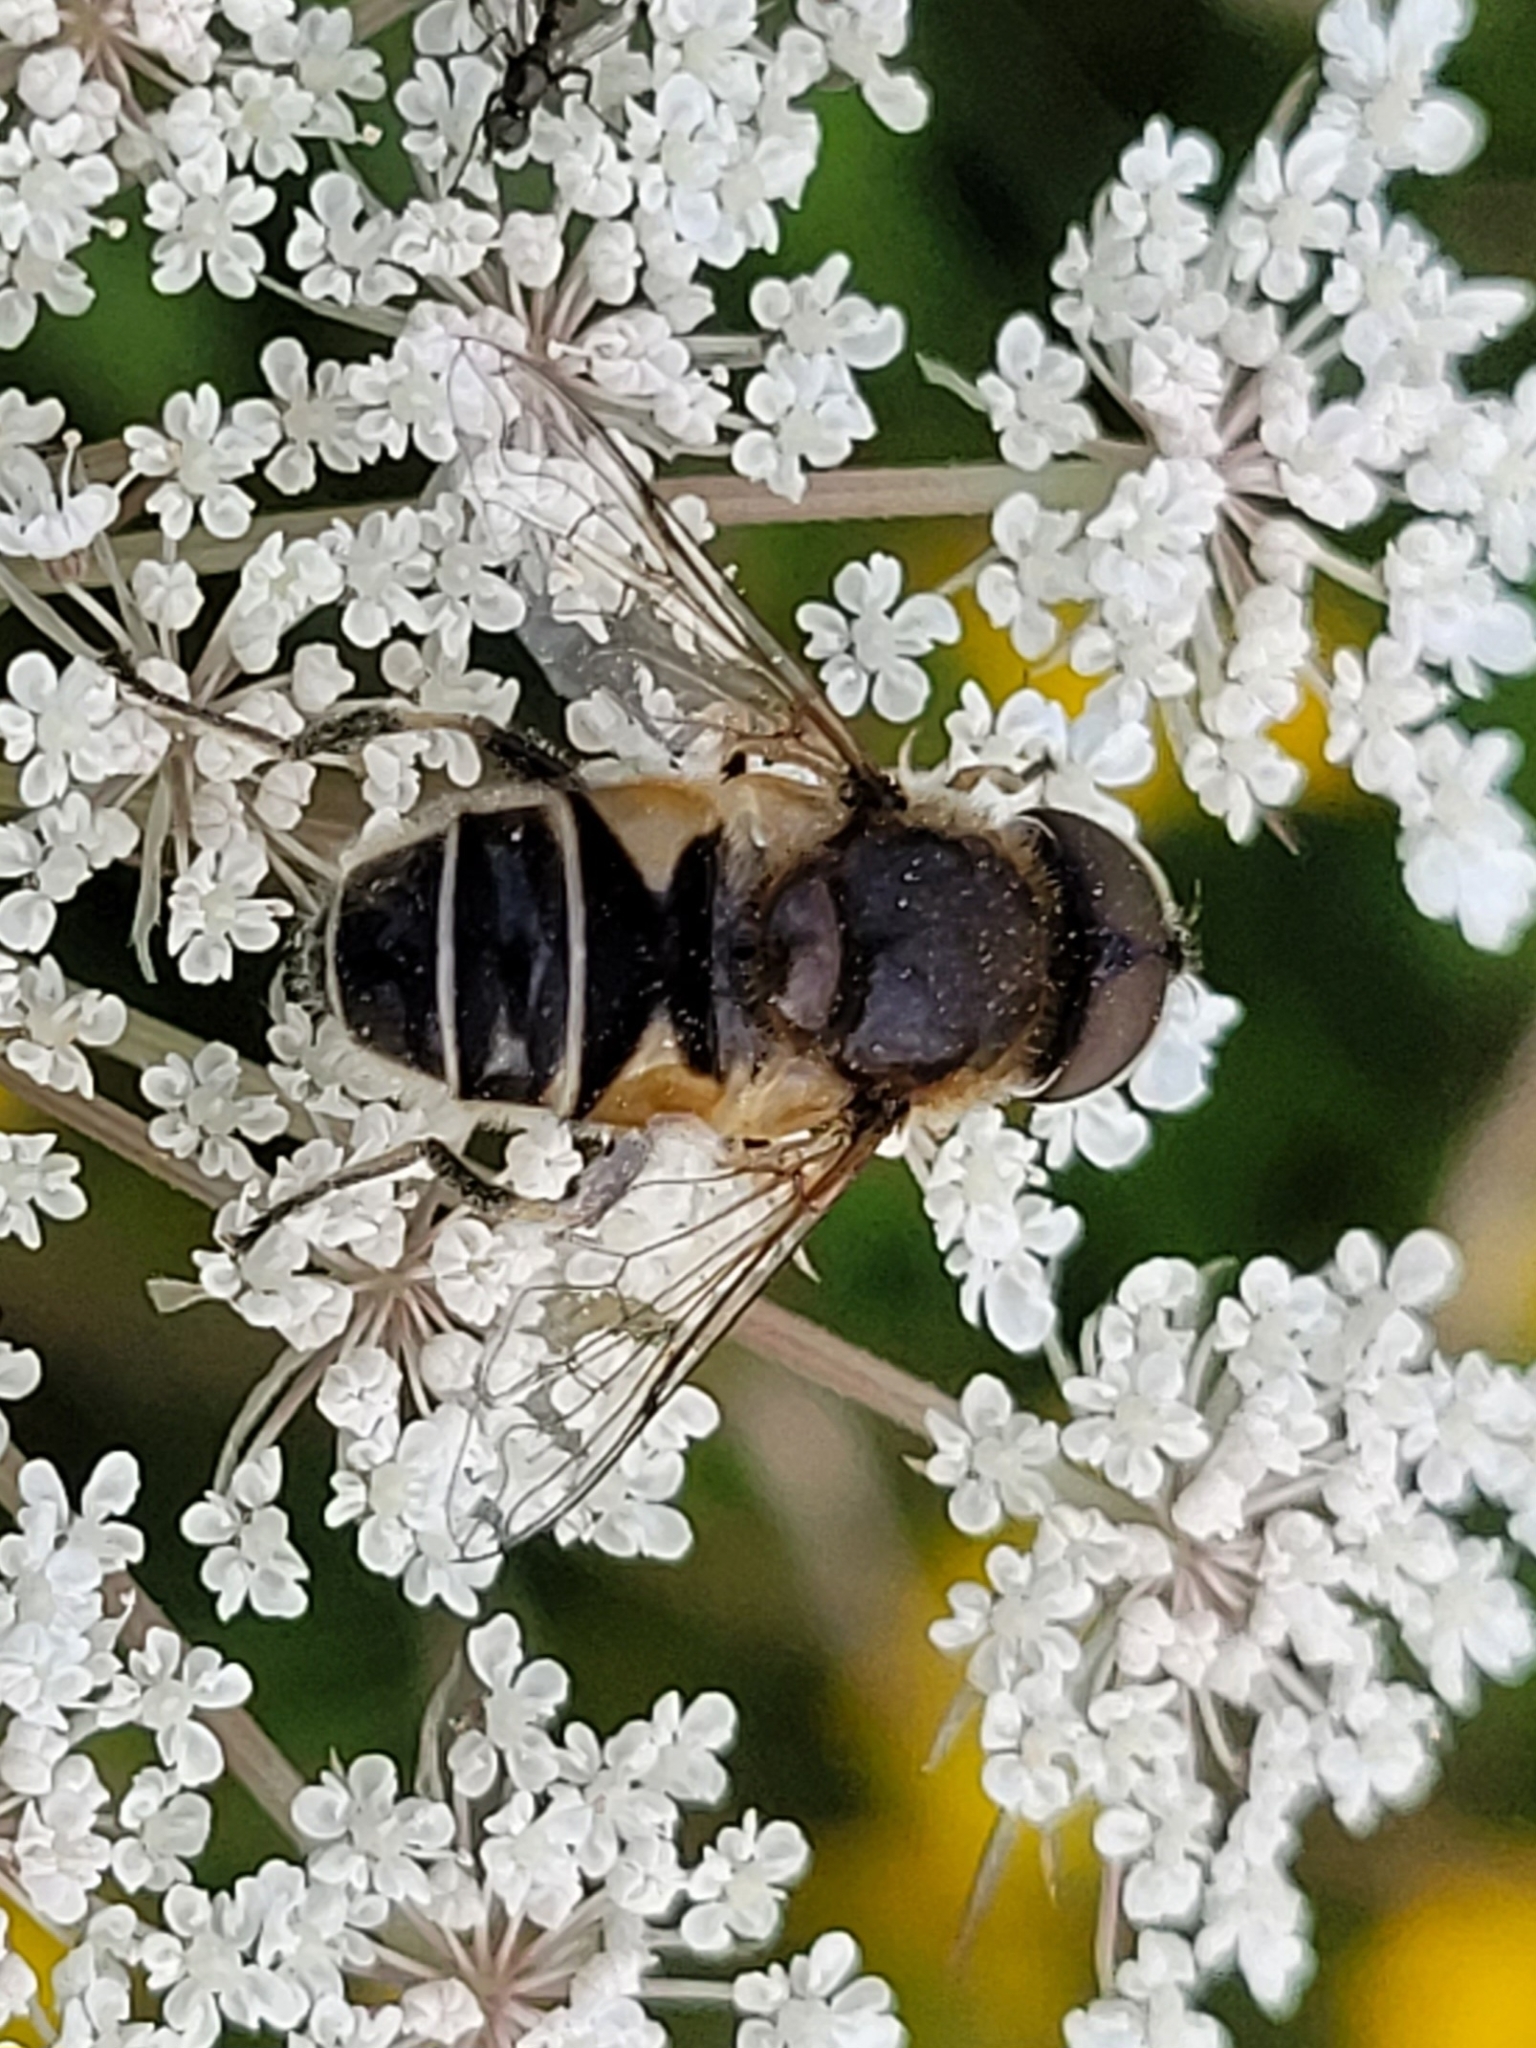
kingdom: Animalia
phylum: Arthropoda
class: Insecta
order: Diptera
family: Syrphidae
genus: Eristalis
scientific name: Eristalis nemorum
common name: Orange-spined drone fly
